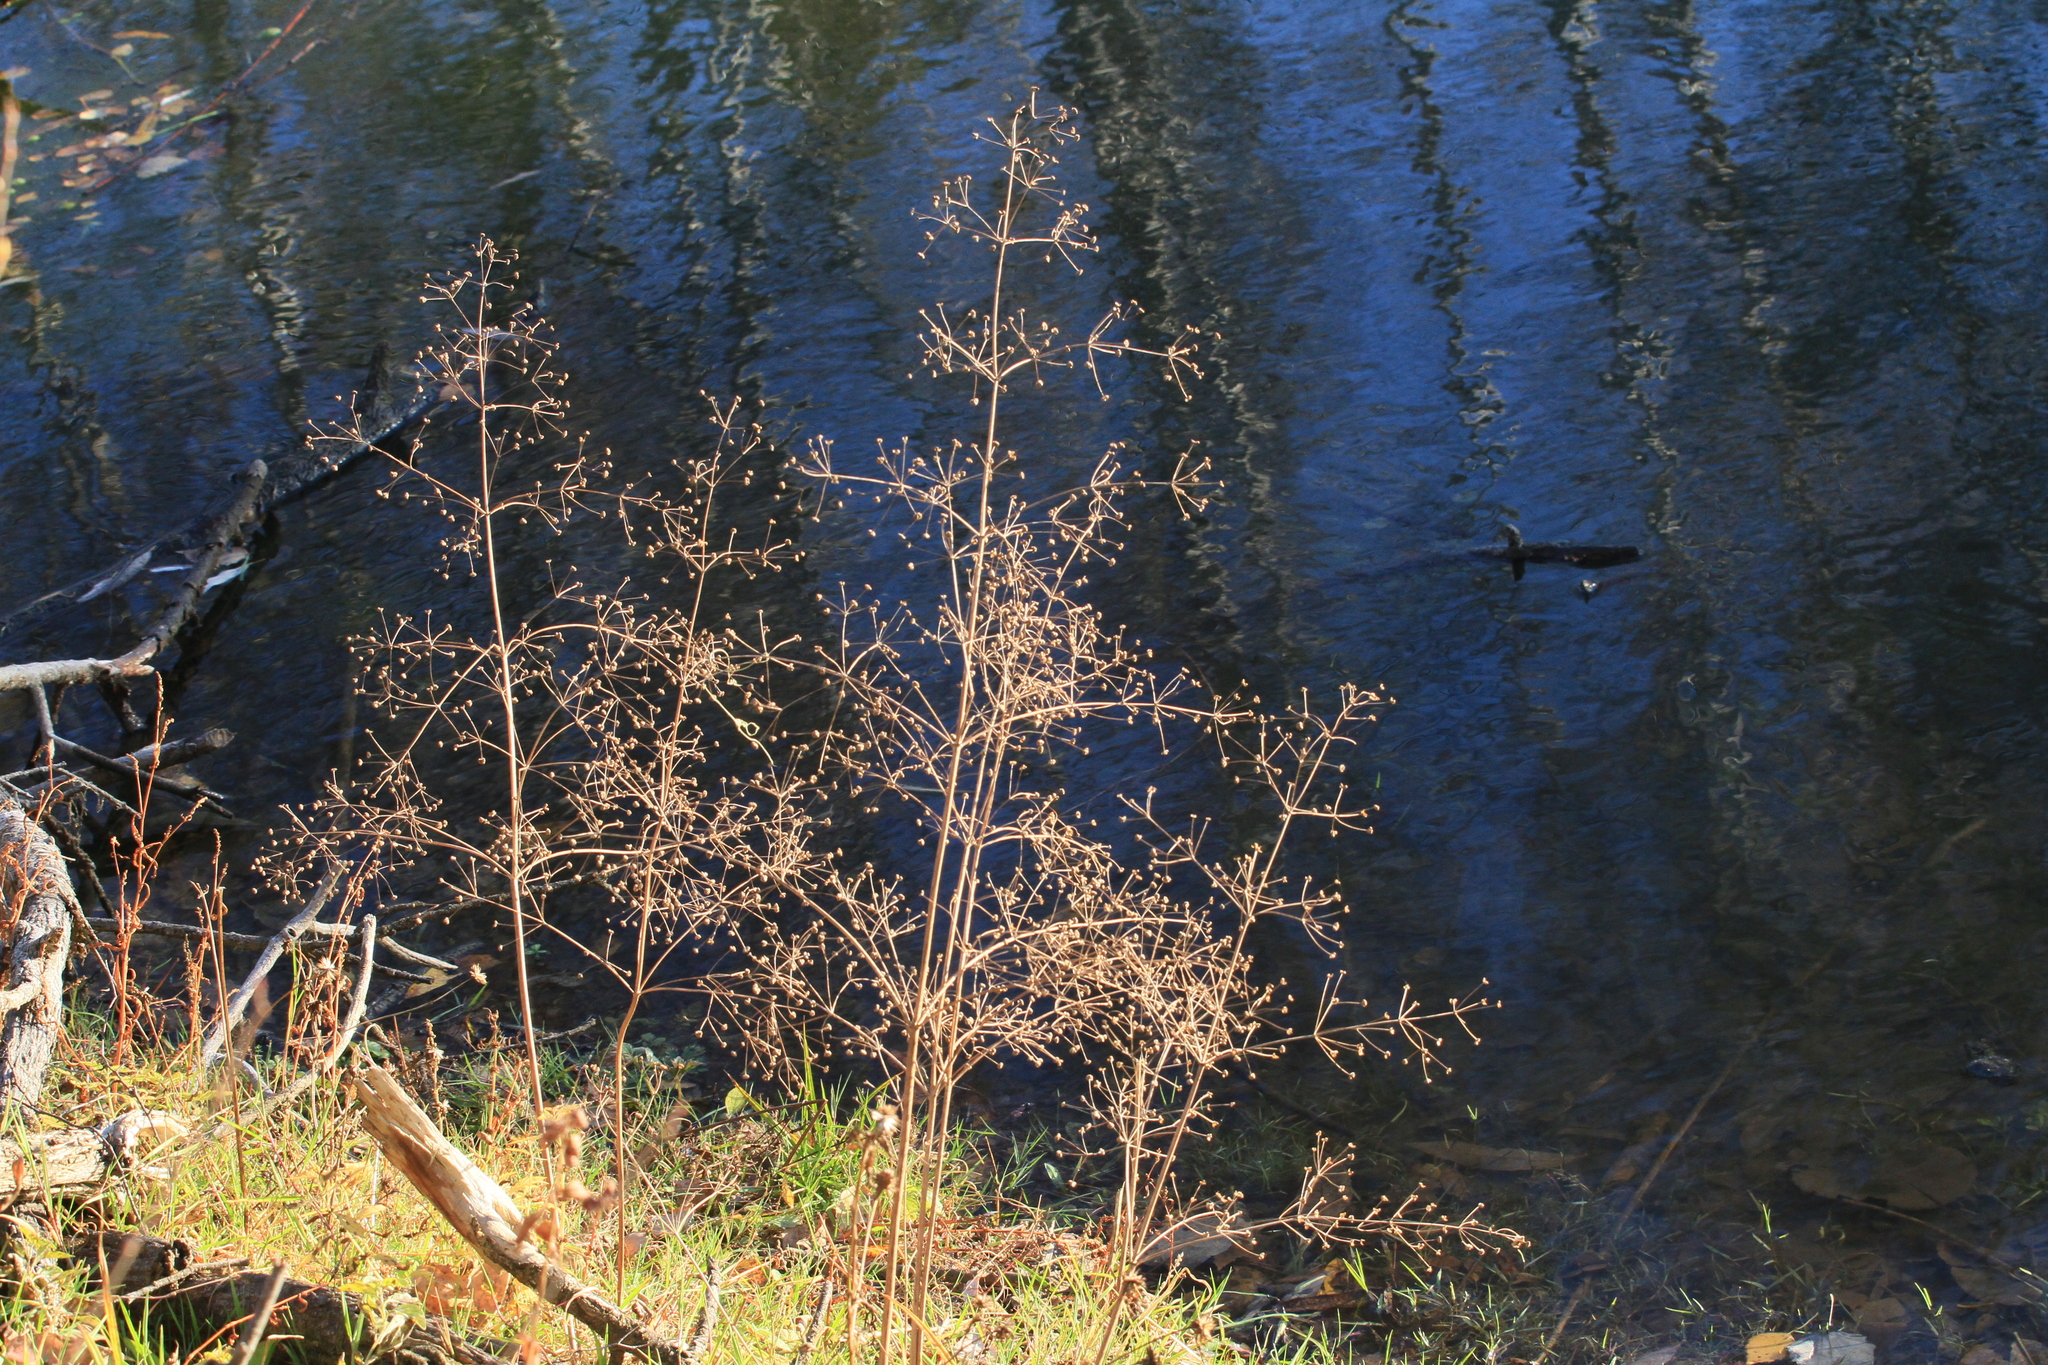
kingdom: Plantae
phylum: Tracheophyta
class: Liliopsida
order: Alismatales
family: Alismataceae
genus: Alisma
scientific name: Alisma plantago-aquatica
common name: Water-plantain
